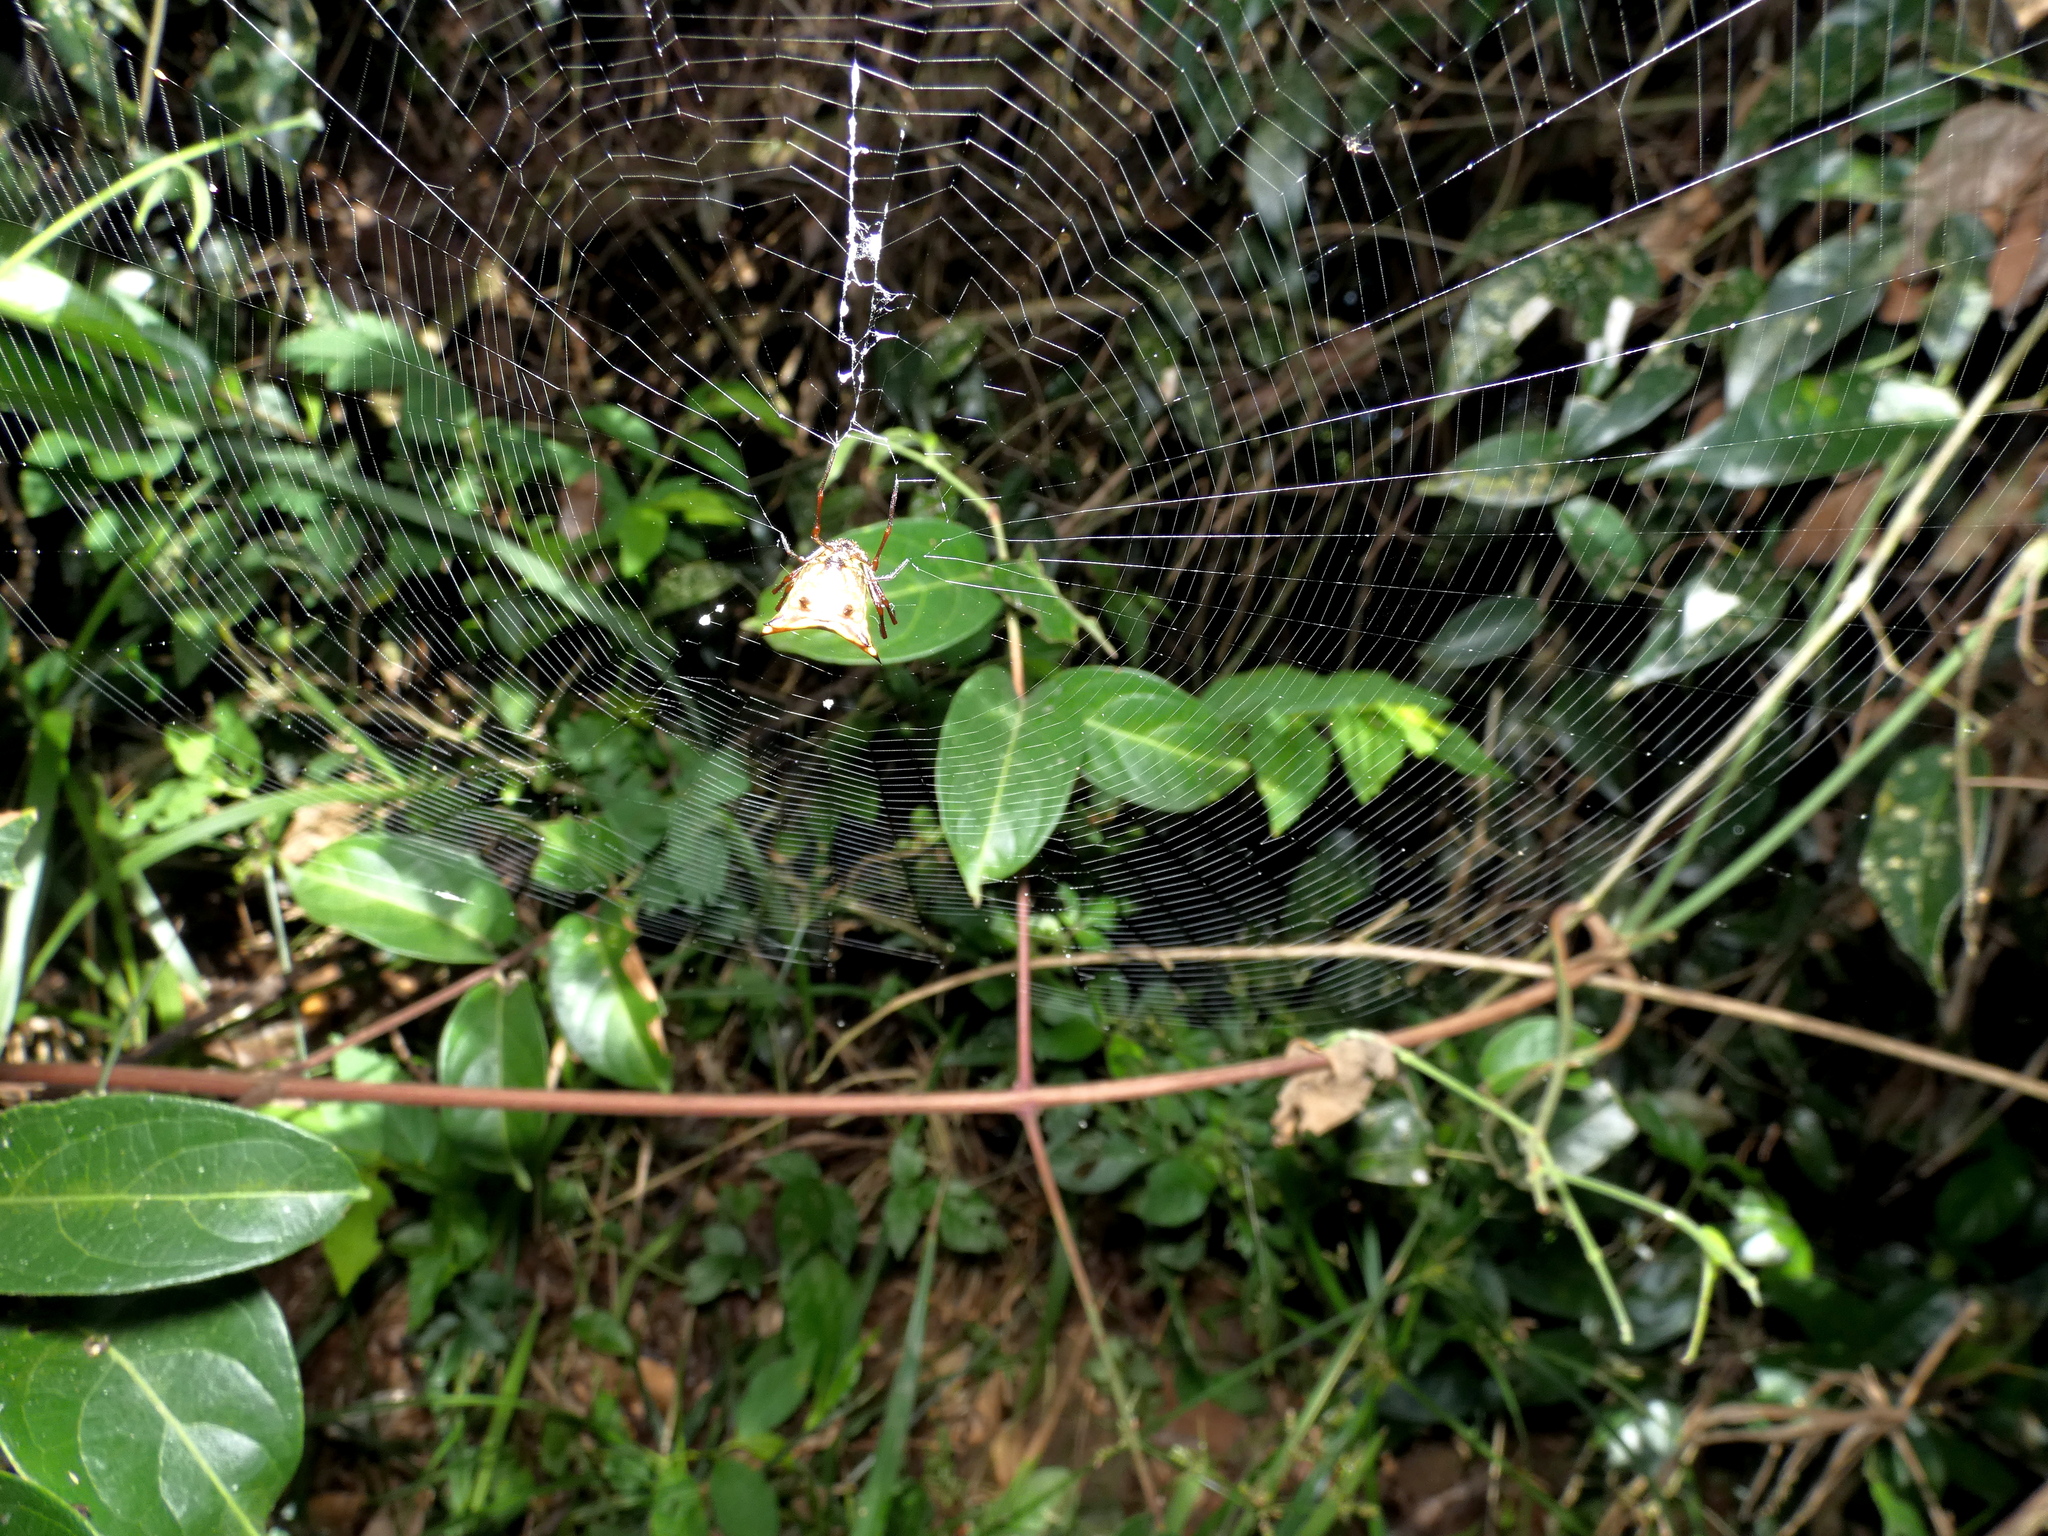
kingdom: Animalia
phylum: Arthropoda
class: Arachnida
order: Araneae
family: Araneidae
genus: Micrathena
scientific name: Micrathena fissispina
